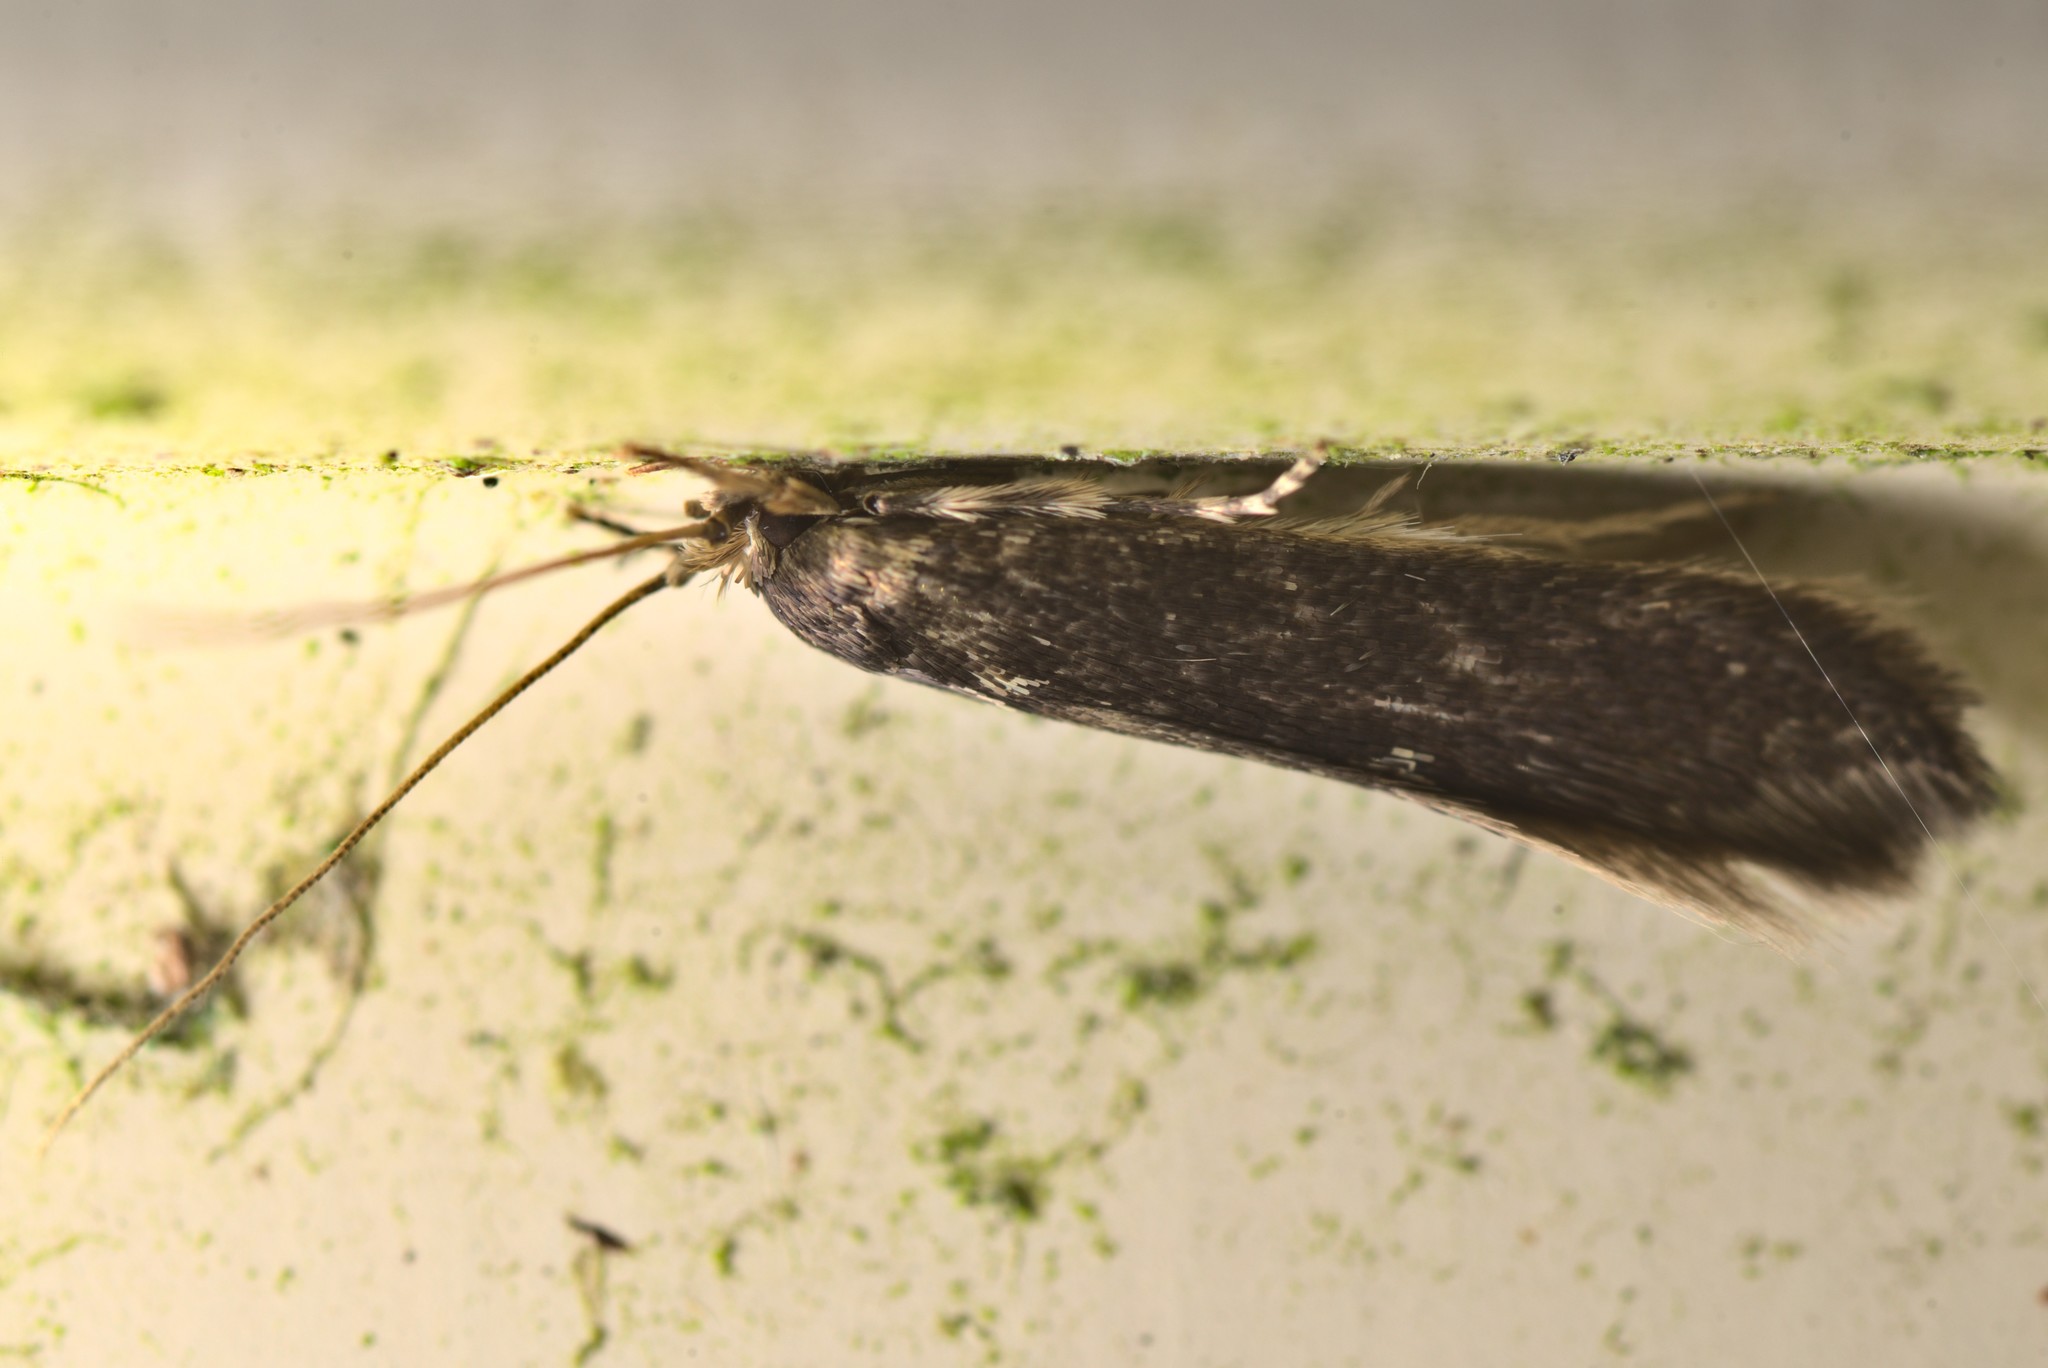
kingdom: Animalia
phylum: Arthropoda
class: Insecta
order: Lepidoptera
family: Tineidae
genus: Opogona
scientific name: Opogona omoscopa
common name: Moth
